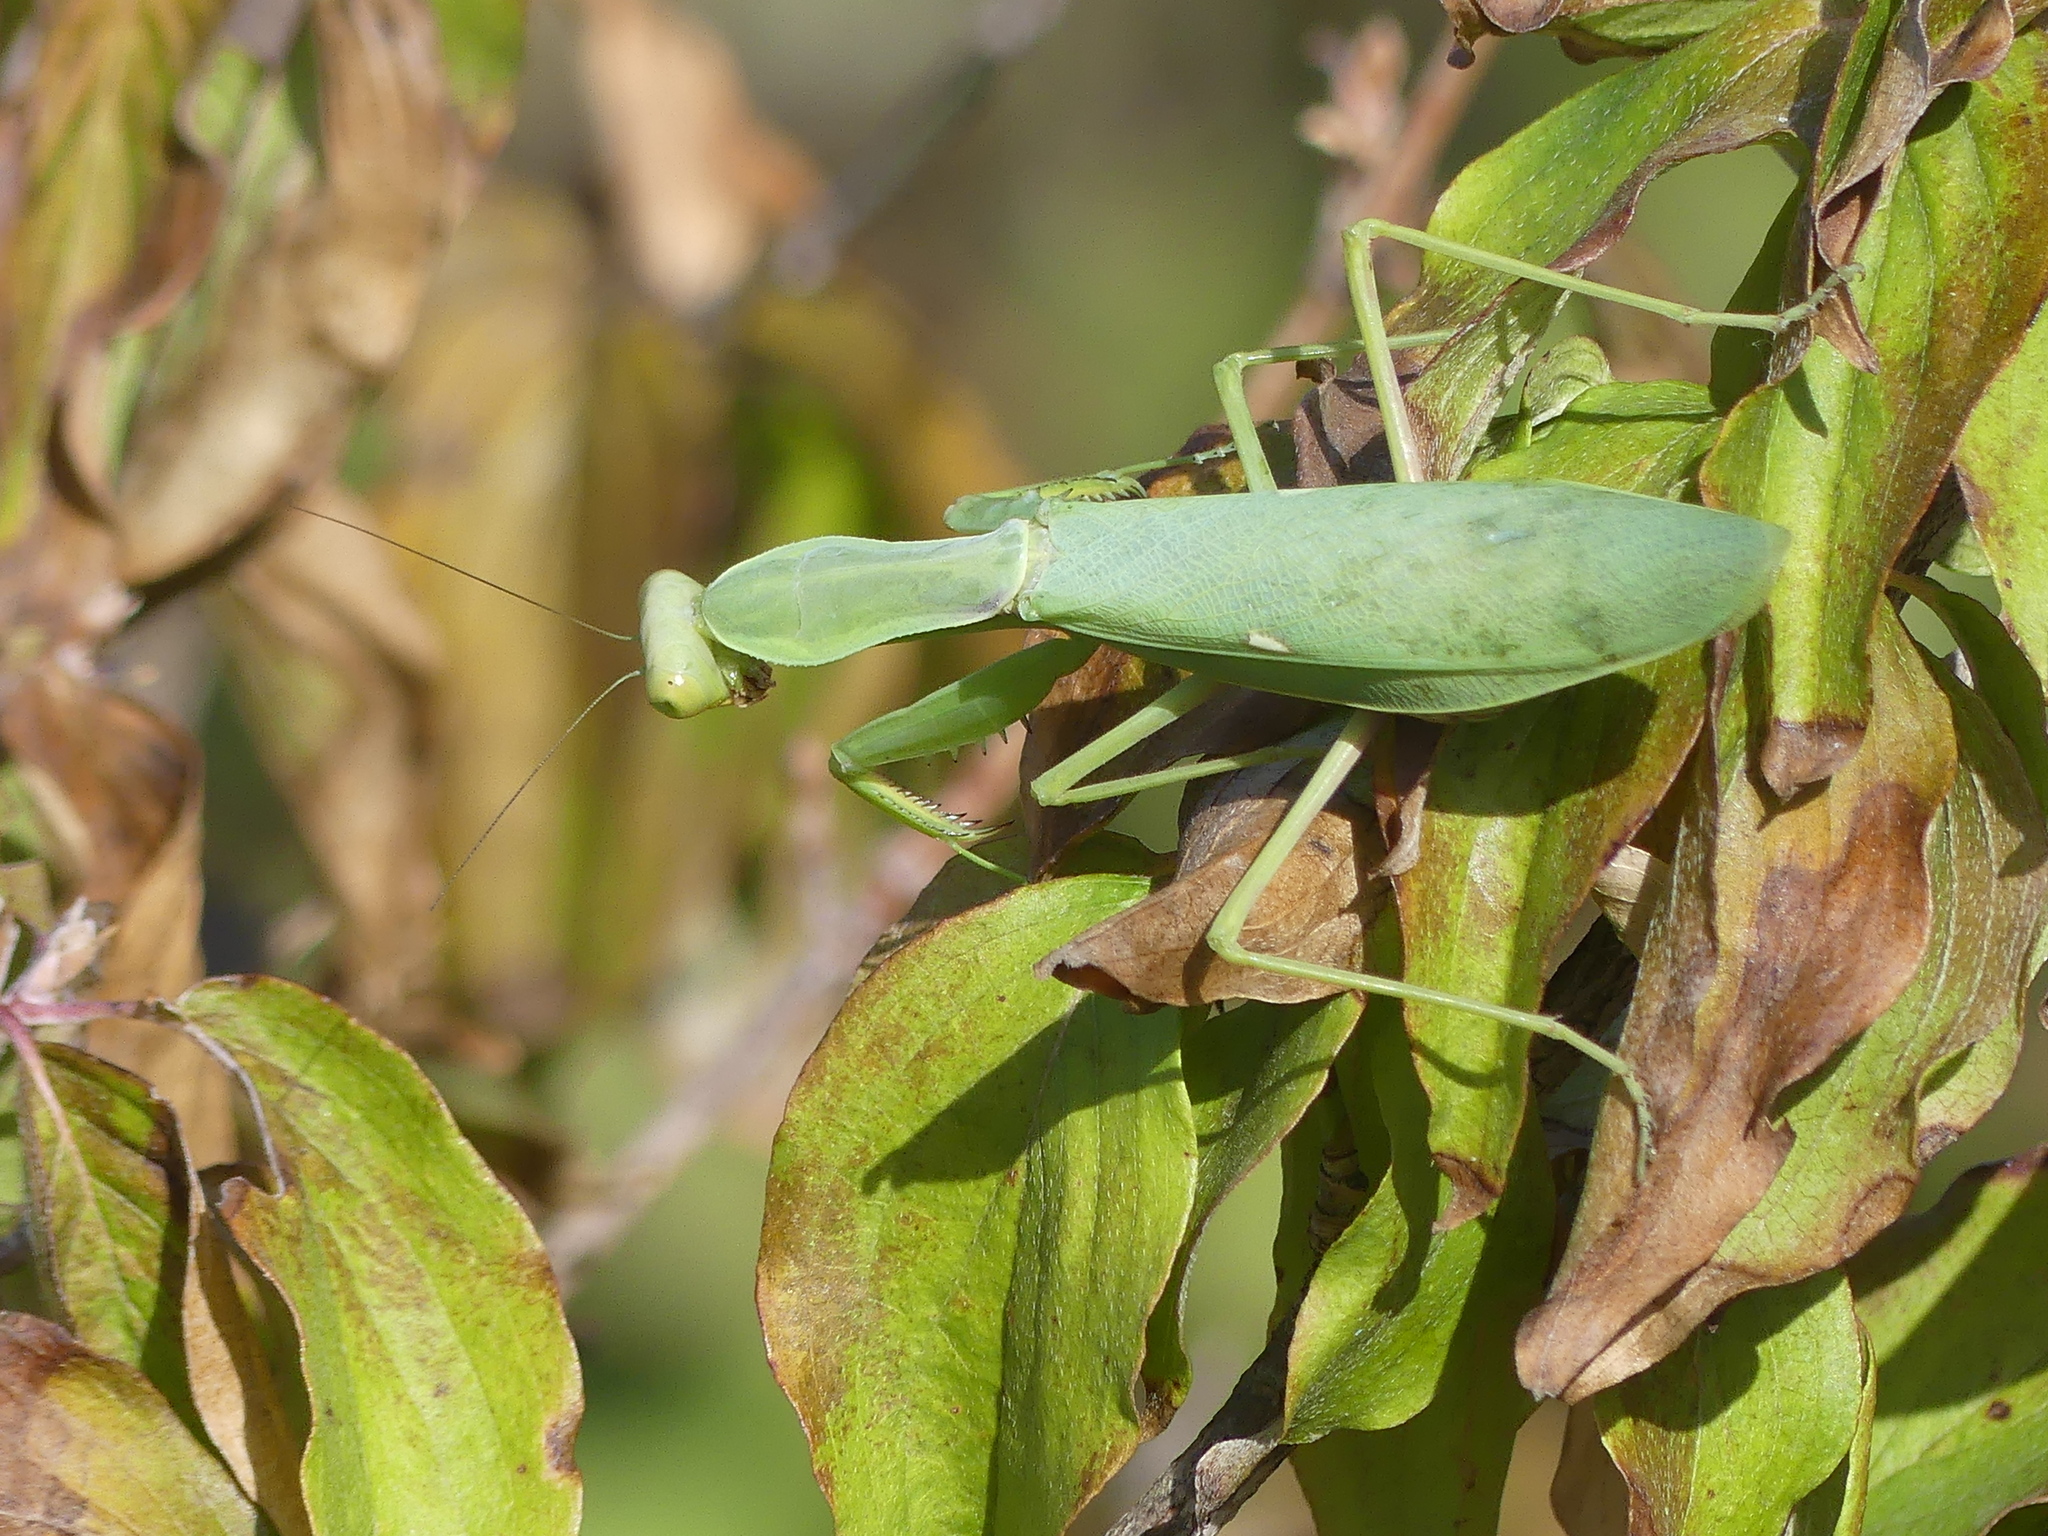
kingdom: Animalia
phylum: Arthropoda
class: Insecta
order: Mantodea
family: Mantidae
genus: Hierodula
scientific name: Hierodula transcaucasica
